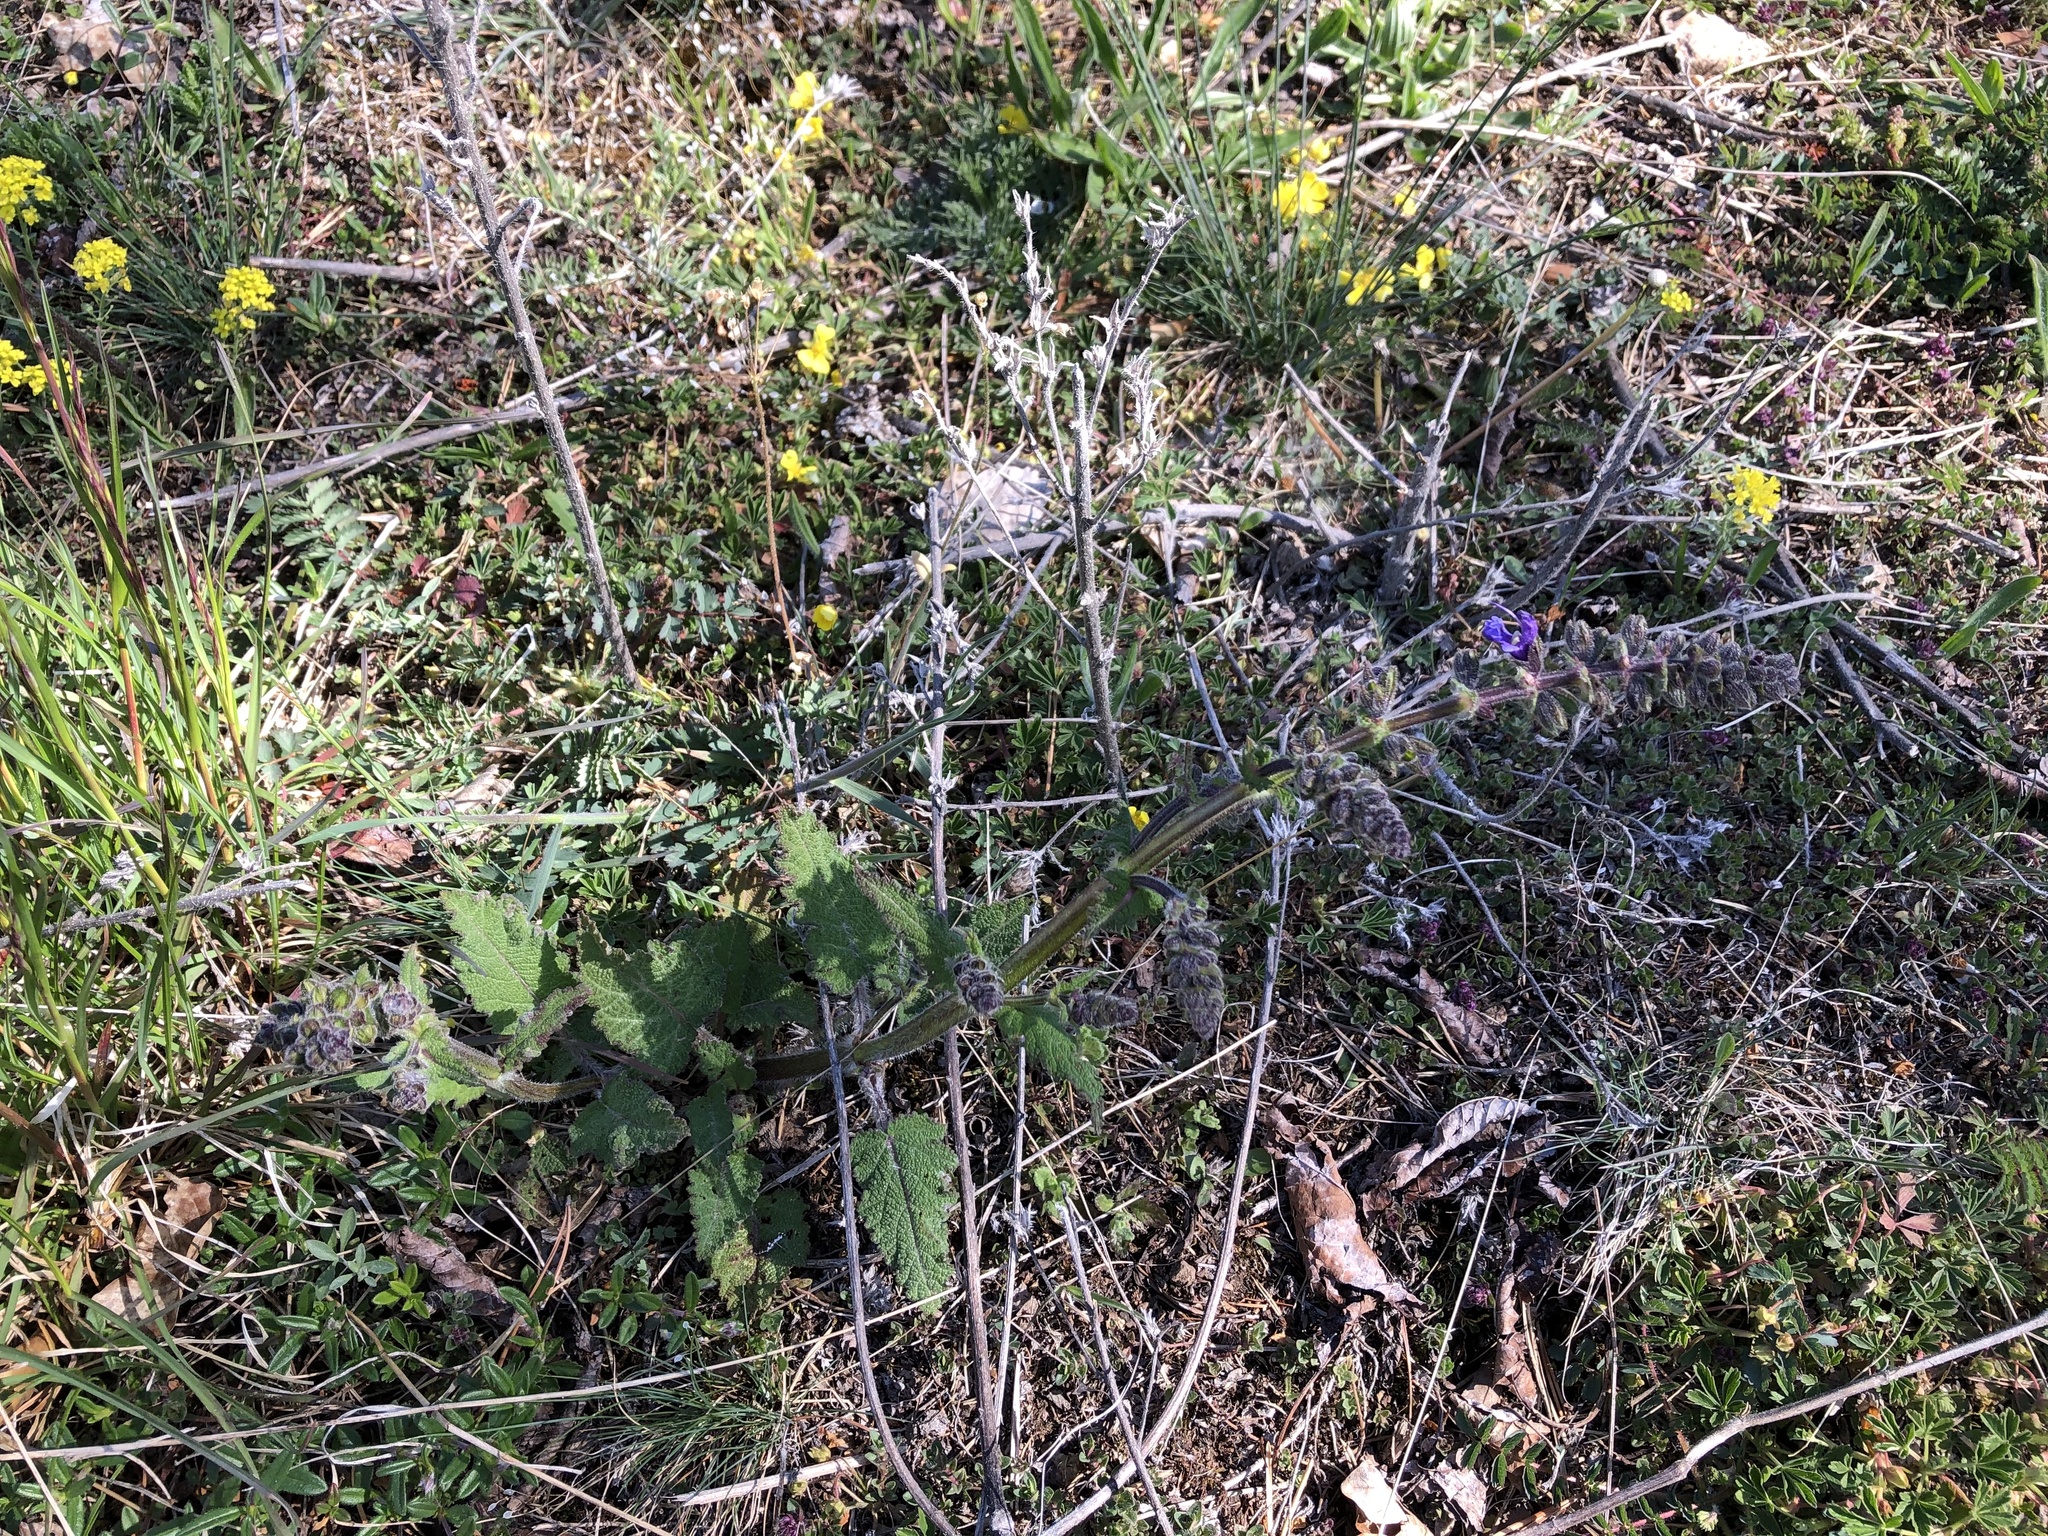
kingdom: Plantae
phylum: Tracheophyta
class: Magnoliopsida
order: Lamiales
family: Lamiaceae
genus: Salvia
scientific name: Salvia pratensis
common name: Meadow sage
